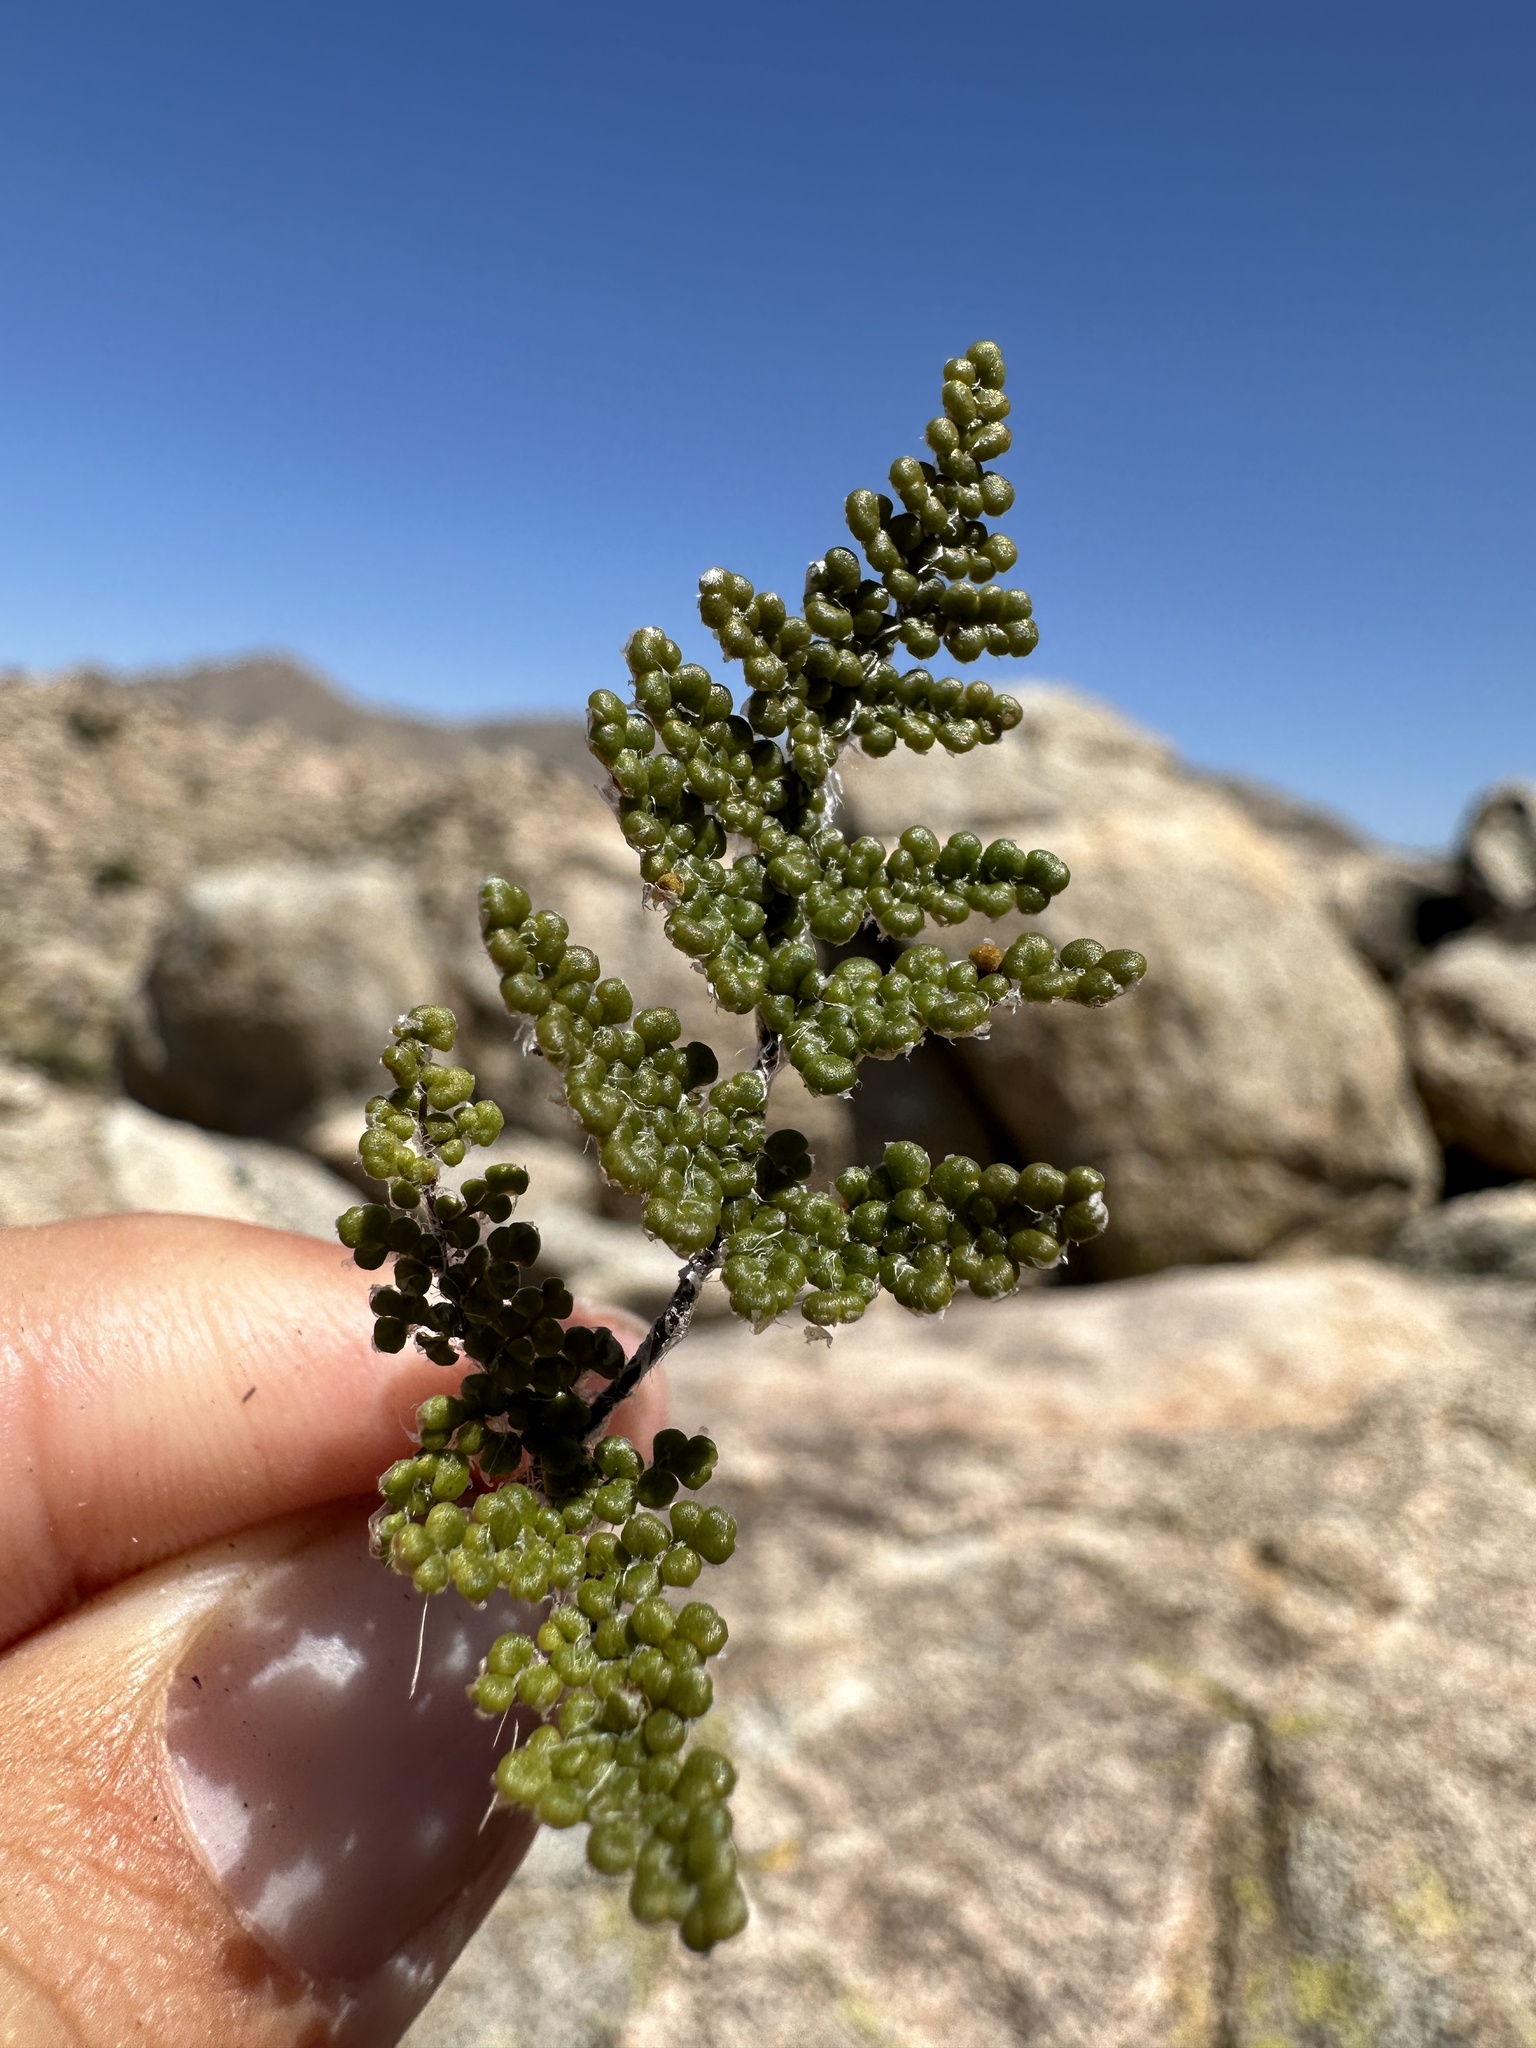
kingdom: Plantae
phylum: Tracheophyta
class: Polypodiopsida
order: Polypodiales
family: Pteridaceae
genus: Myriopteris
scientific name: Myriopteris covillei
